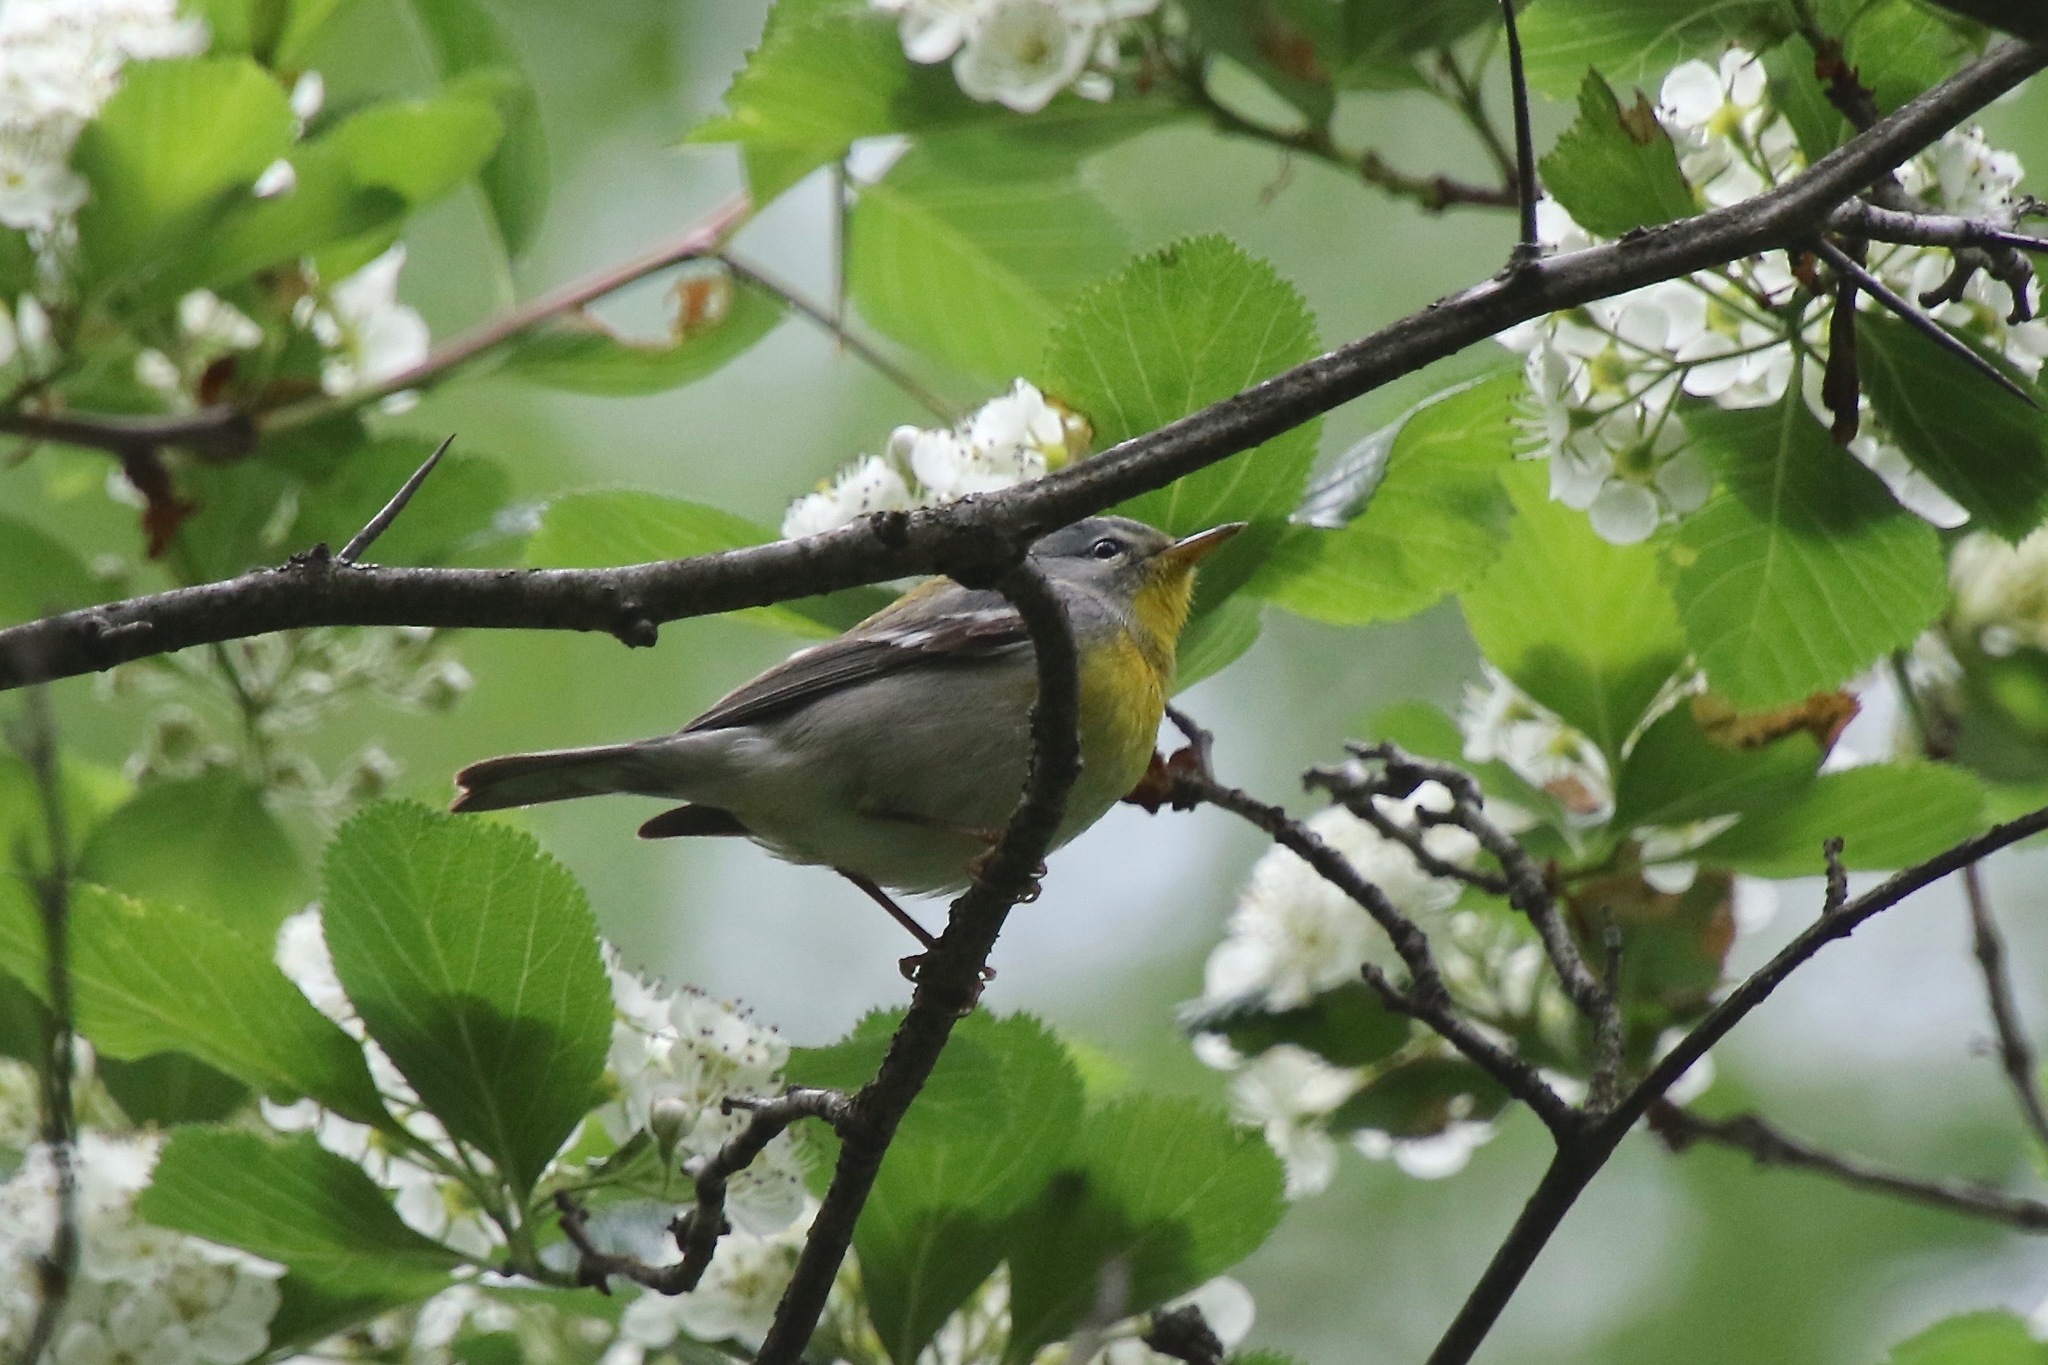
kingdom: Animalia
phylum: Chordata
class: Aves
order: Passeriformes
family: Parulidae
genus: Setophaga
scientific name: Setophaga americana
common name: Northern parula
